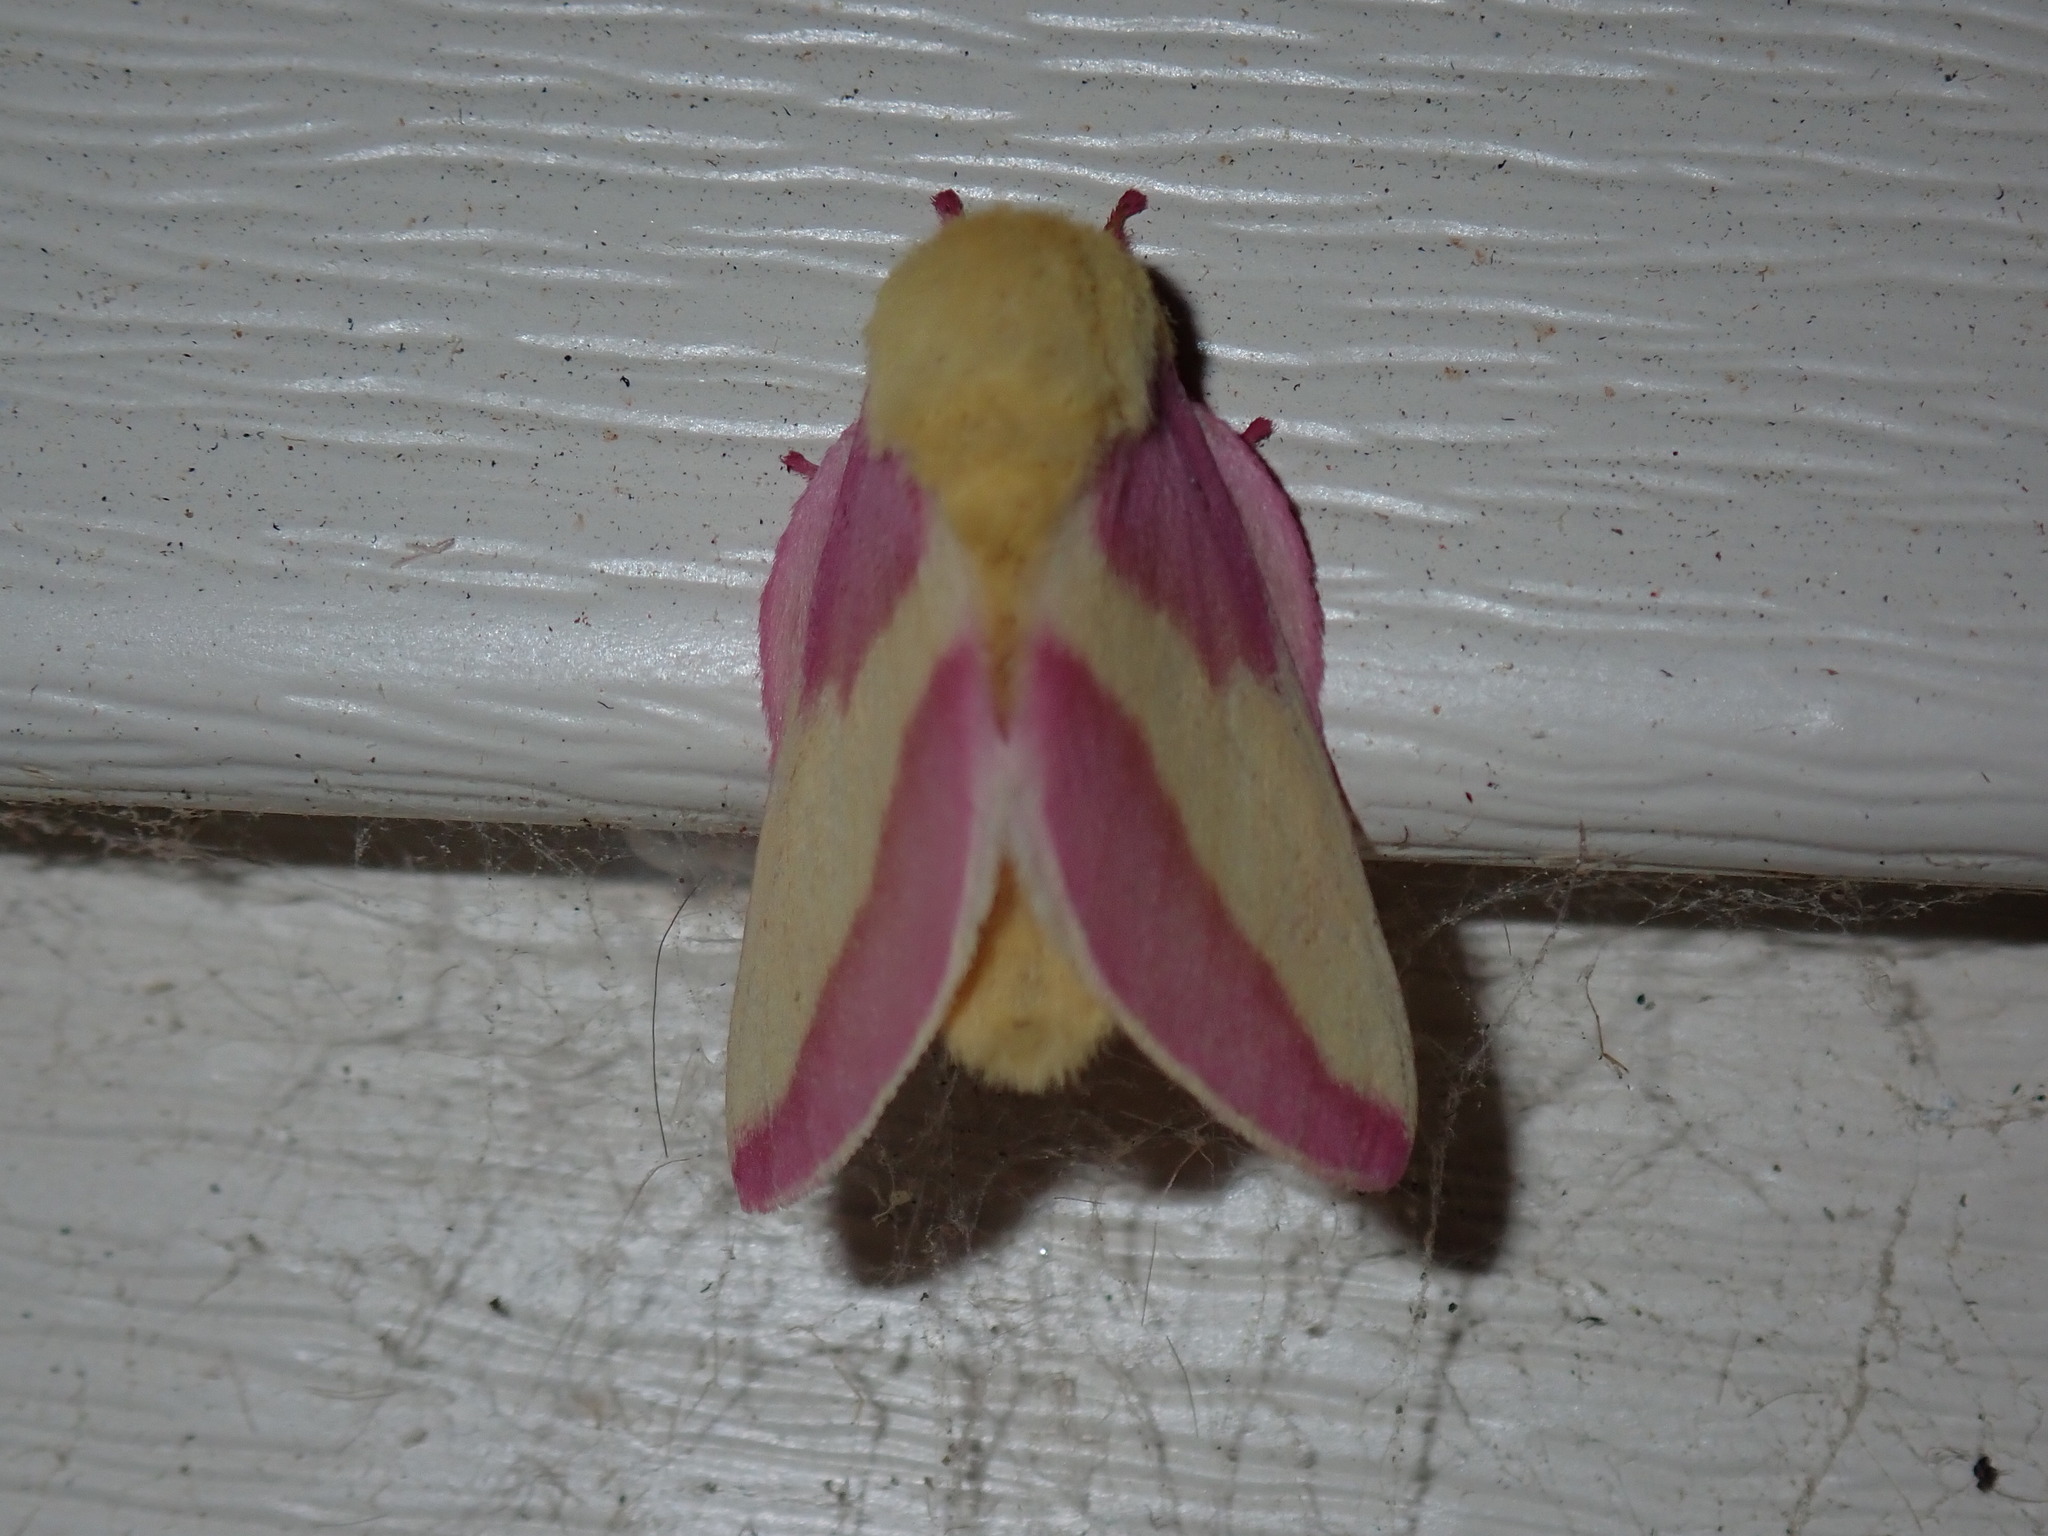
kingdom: Animalia
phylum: Arthropoda
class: Insecta
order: Lepidoptera
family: Saturniidae
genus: Dryocampa
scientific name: Dryocampa rubicunda
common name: Rosy maple moth
